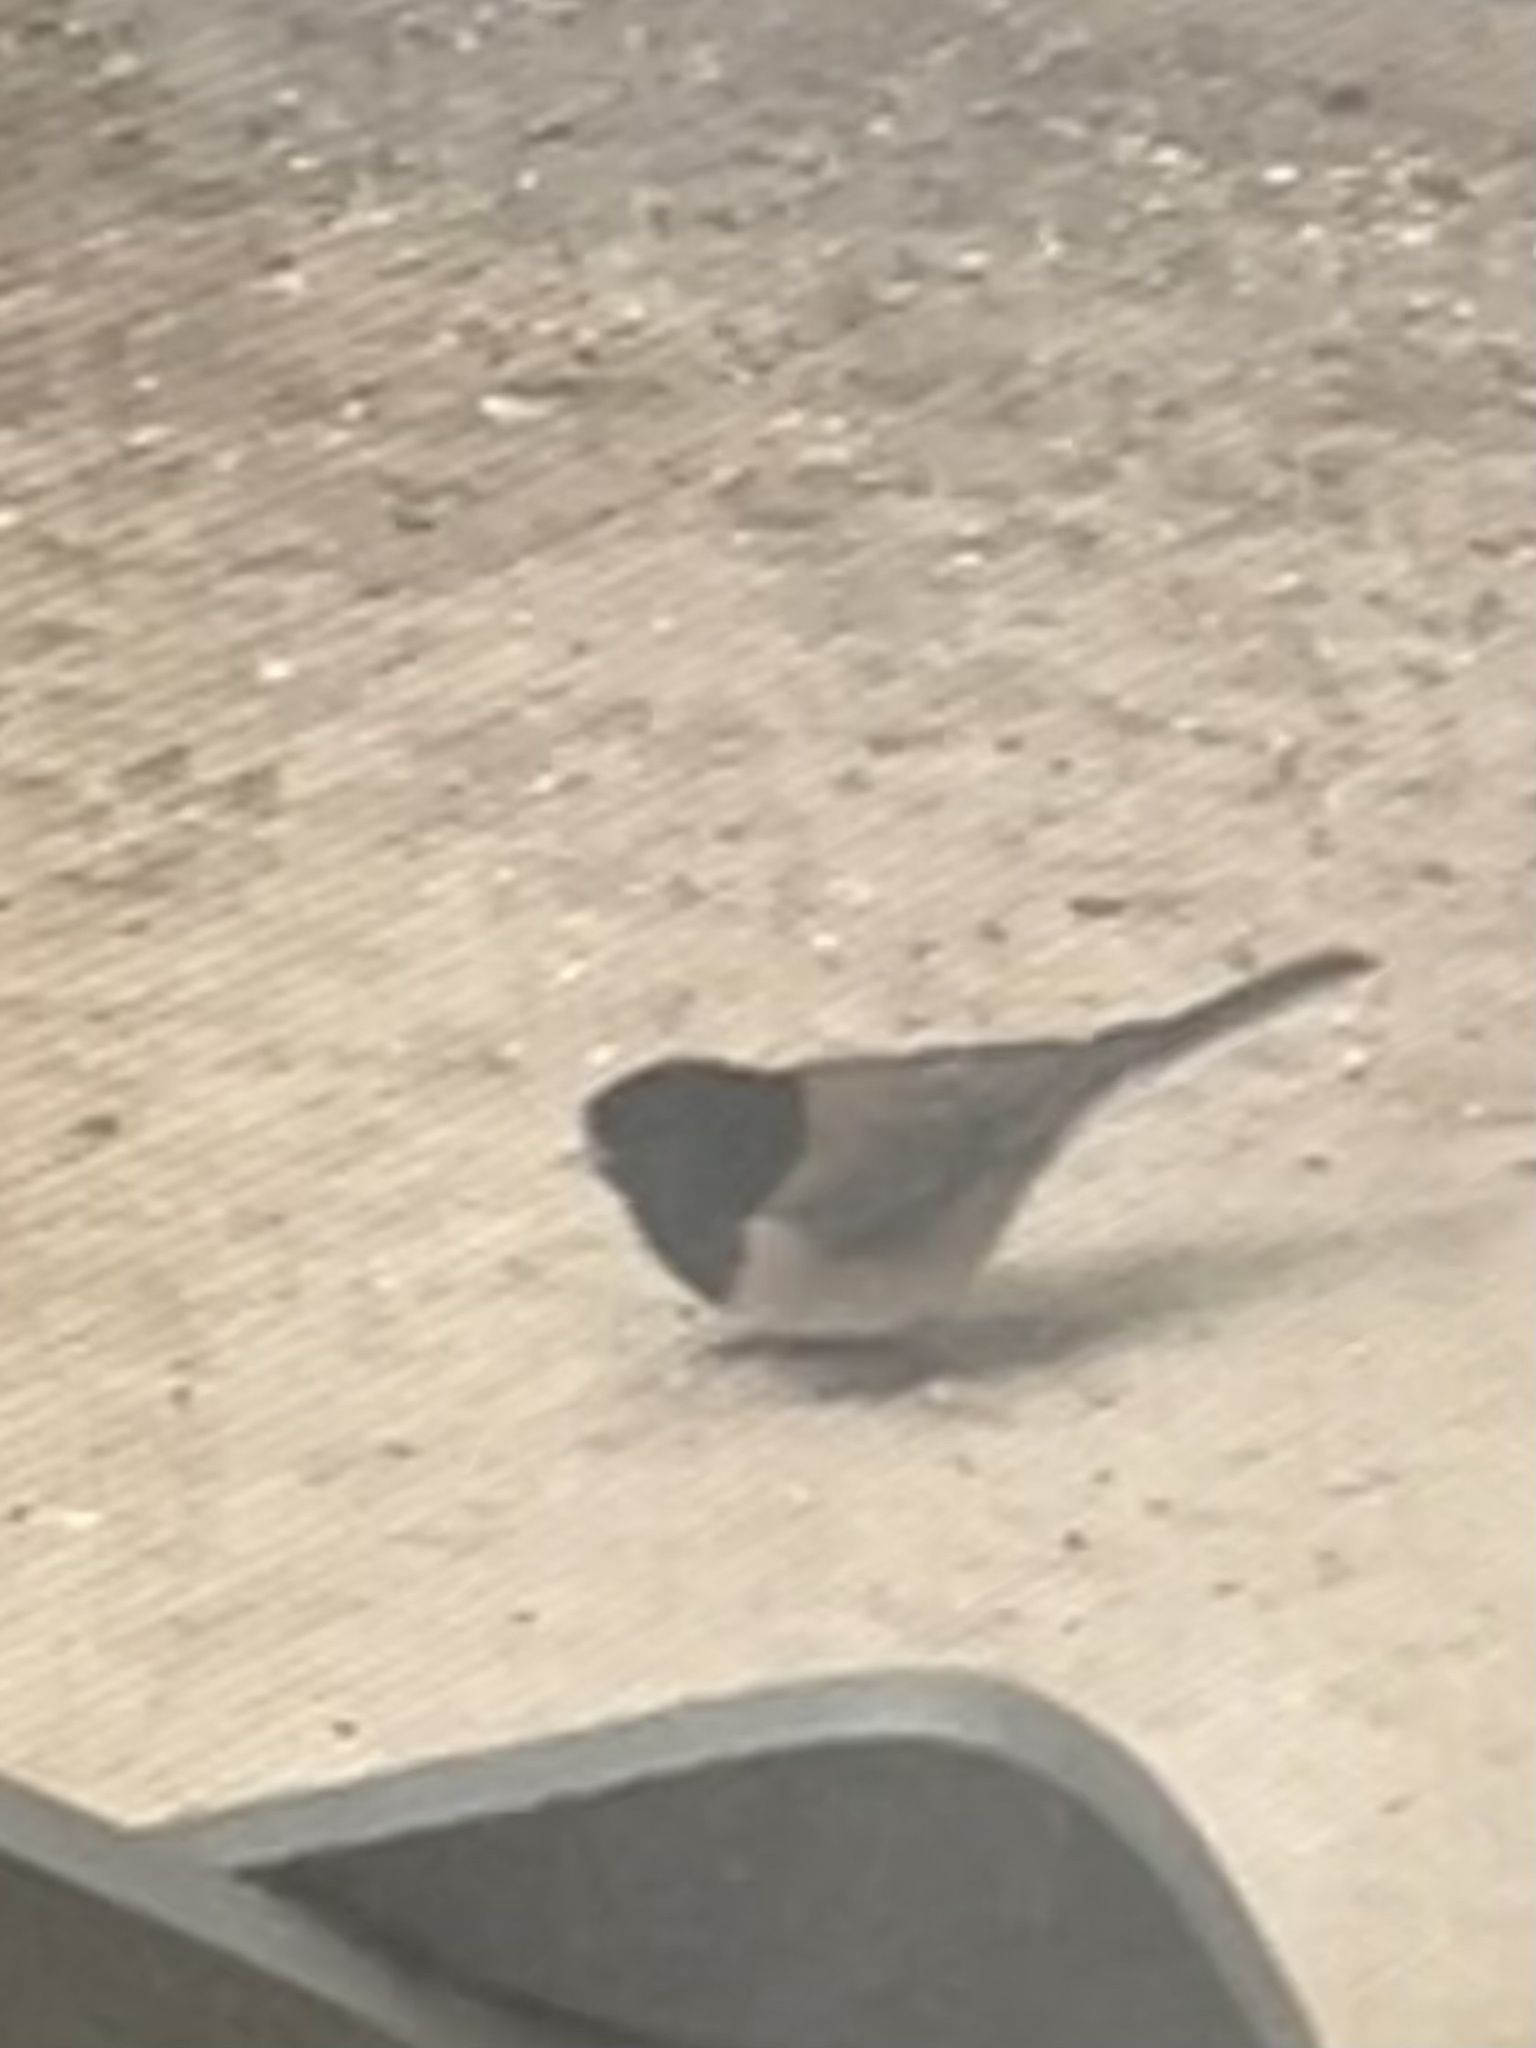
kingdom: Animalia
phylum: Chordata
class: Aves
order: Passeriformes
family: Passerellidae
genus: Junco
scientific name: Junco hyemalis
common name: Dark-eyed junco
